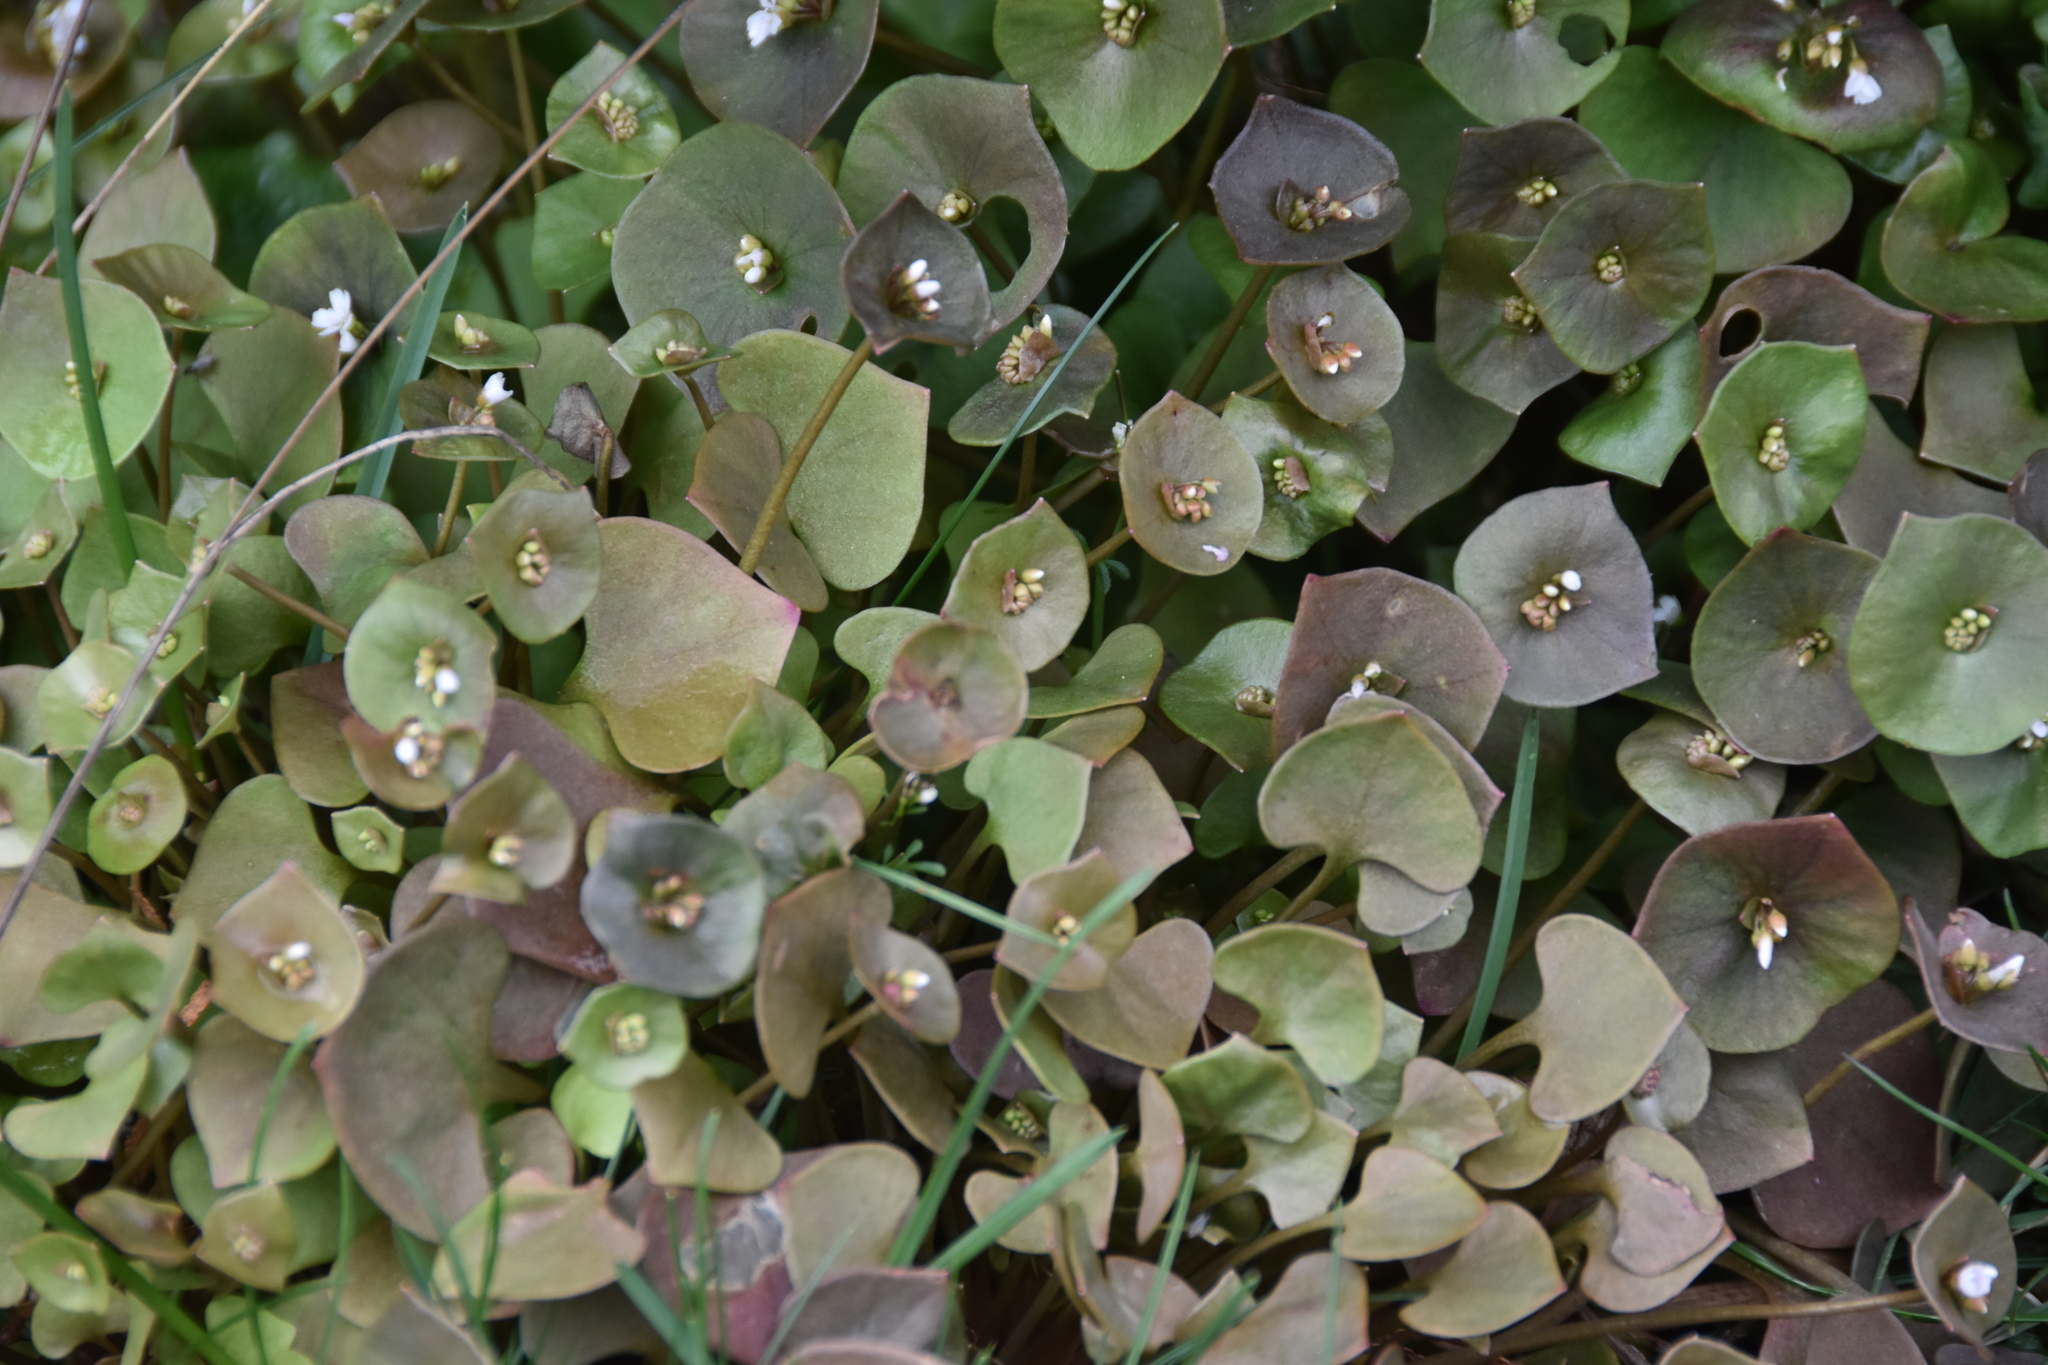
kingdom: Plantae
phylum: Tracheophyta
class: Magnoliopsida
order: Caryophyllales
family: Montiaceae
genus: Claytonia
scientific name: Claytonia perfoliata
